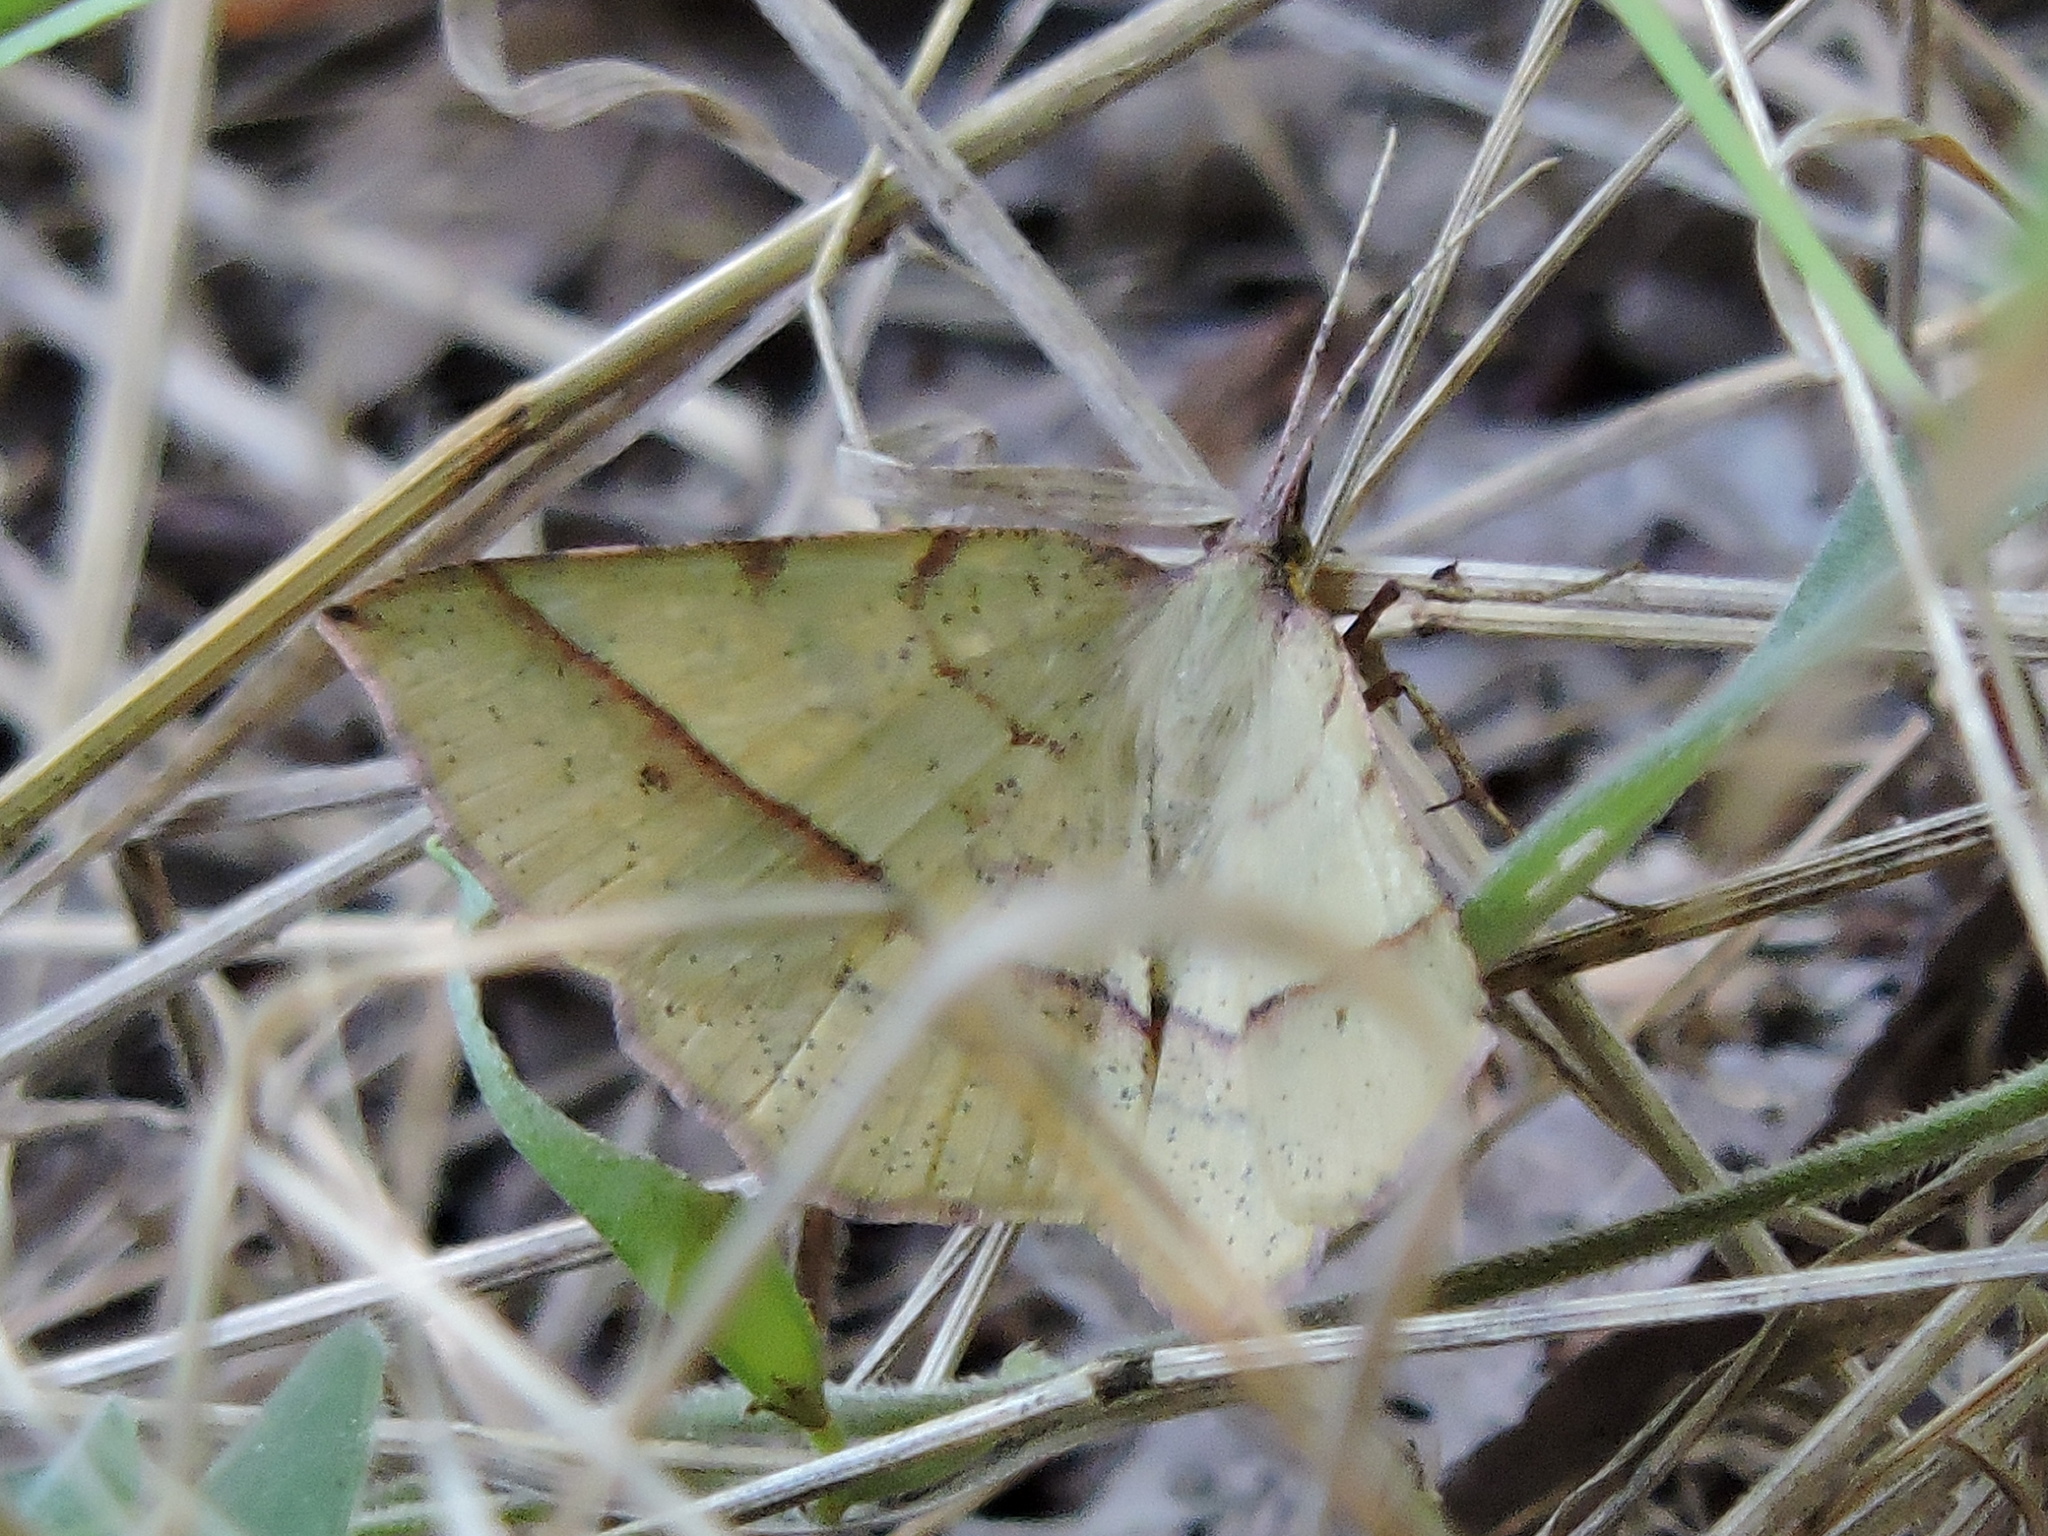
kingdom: Animalia
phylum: Arthropoda
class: Insecta
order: Lepidoptera
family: Geometridae
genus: Erastria
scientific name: Erastria cruentaria
